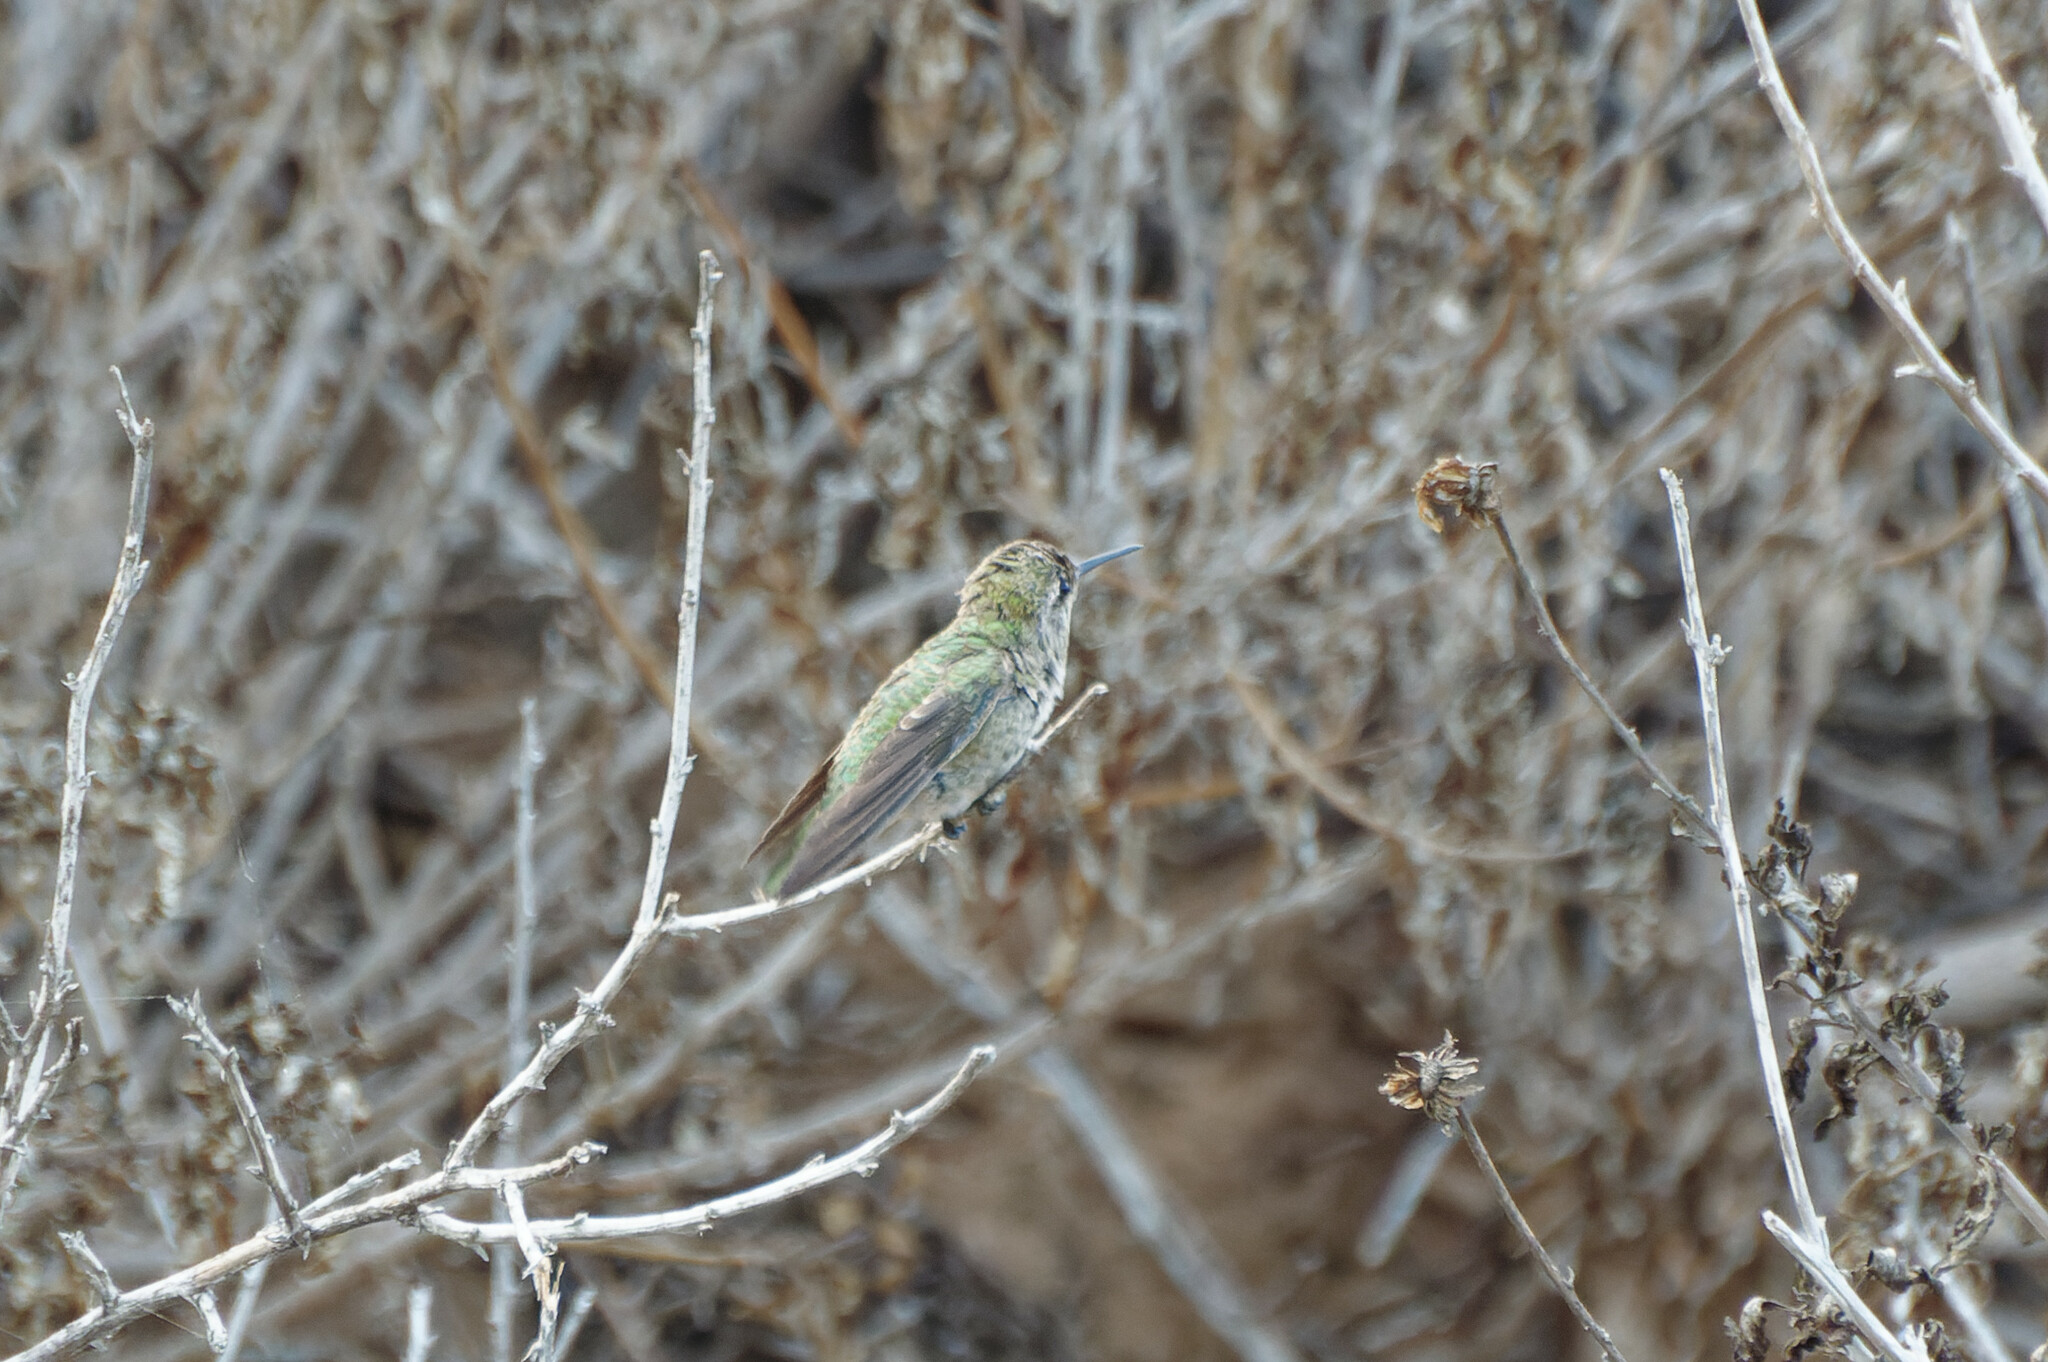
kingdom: Animalia
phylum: Chordata
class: Aves
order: Apodiformes
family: Trochilidae
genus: Calypte
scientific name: Calypte anna
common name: Anna's hummingbird
